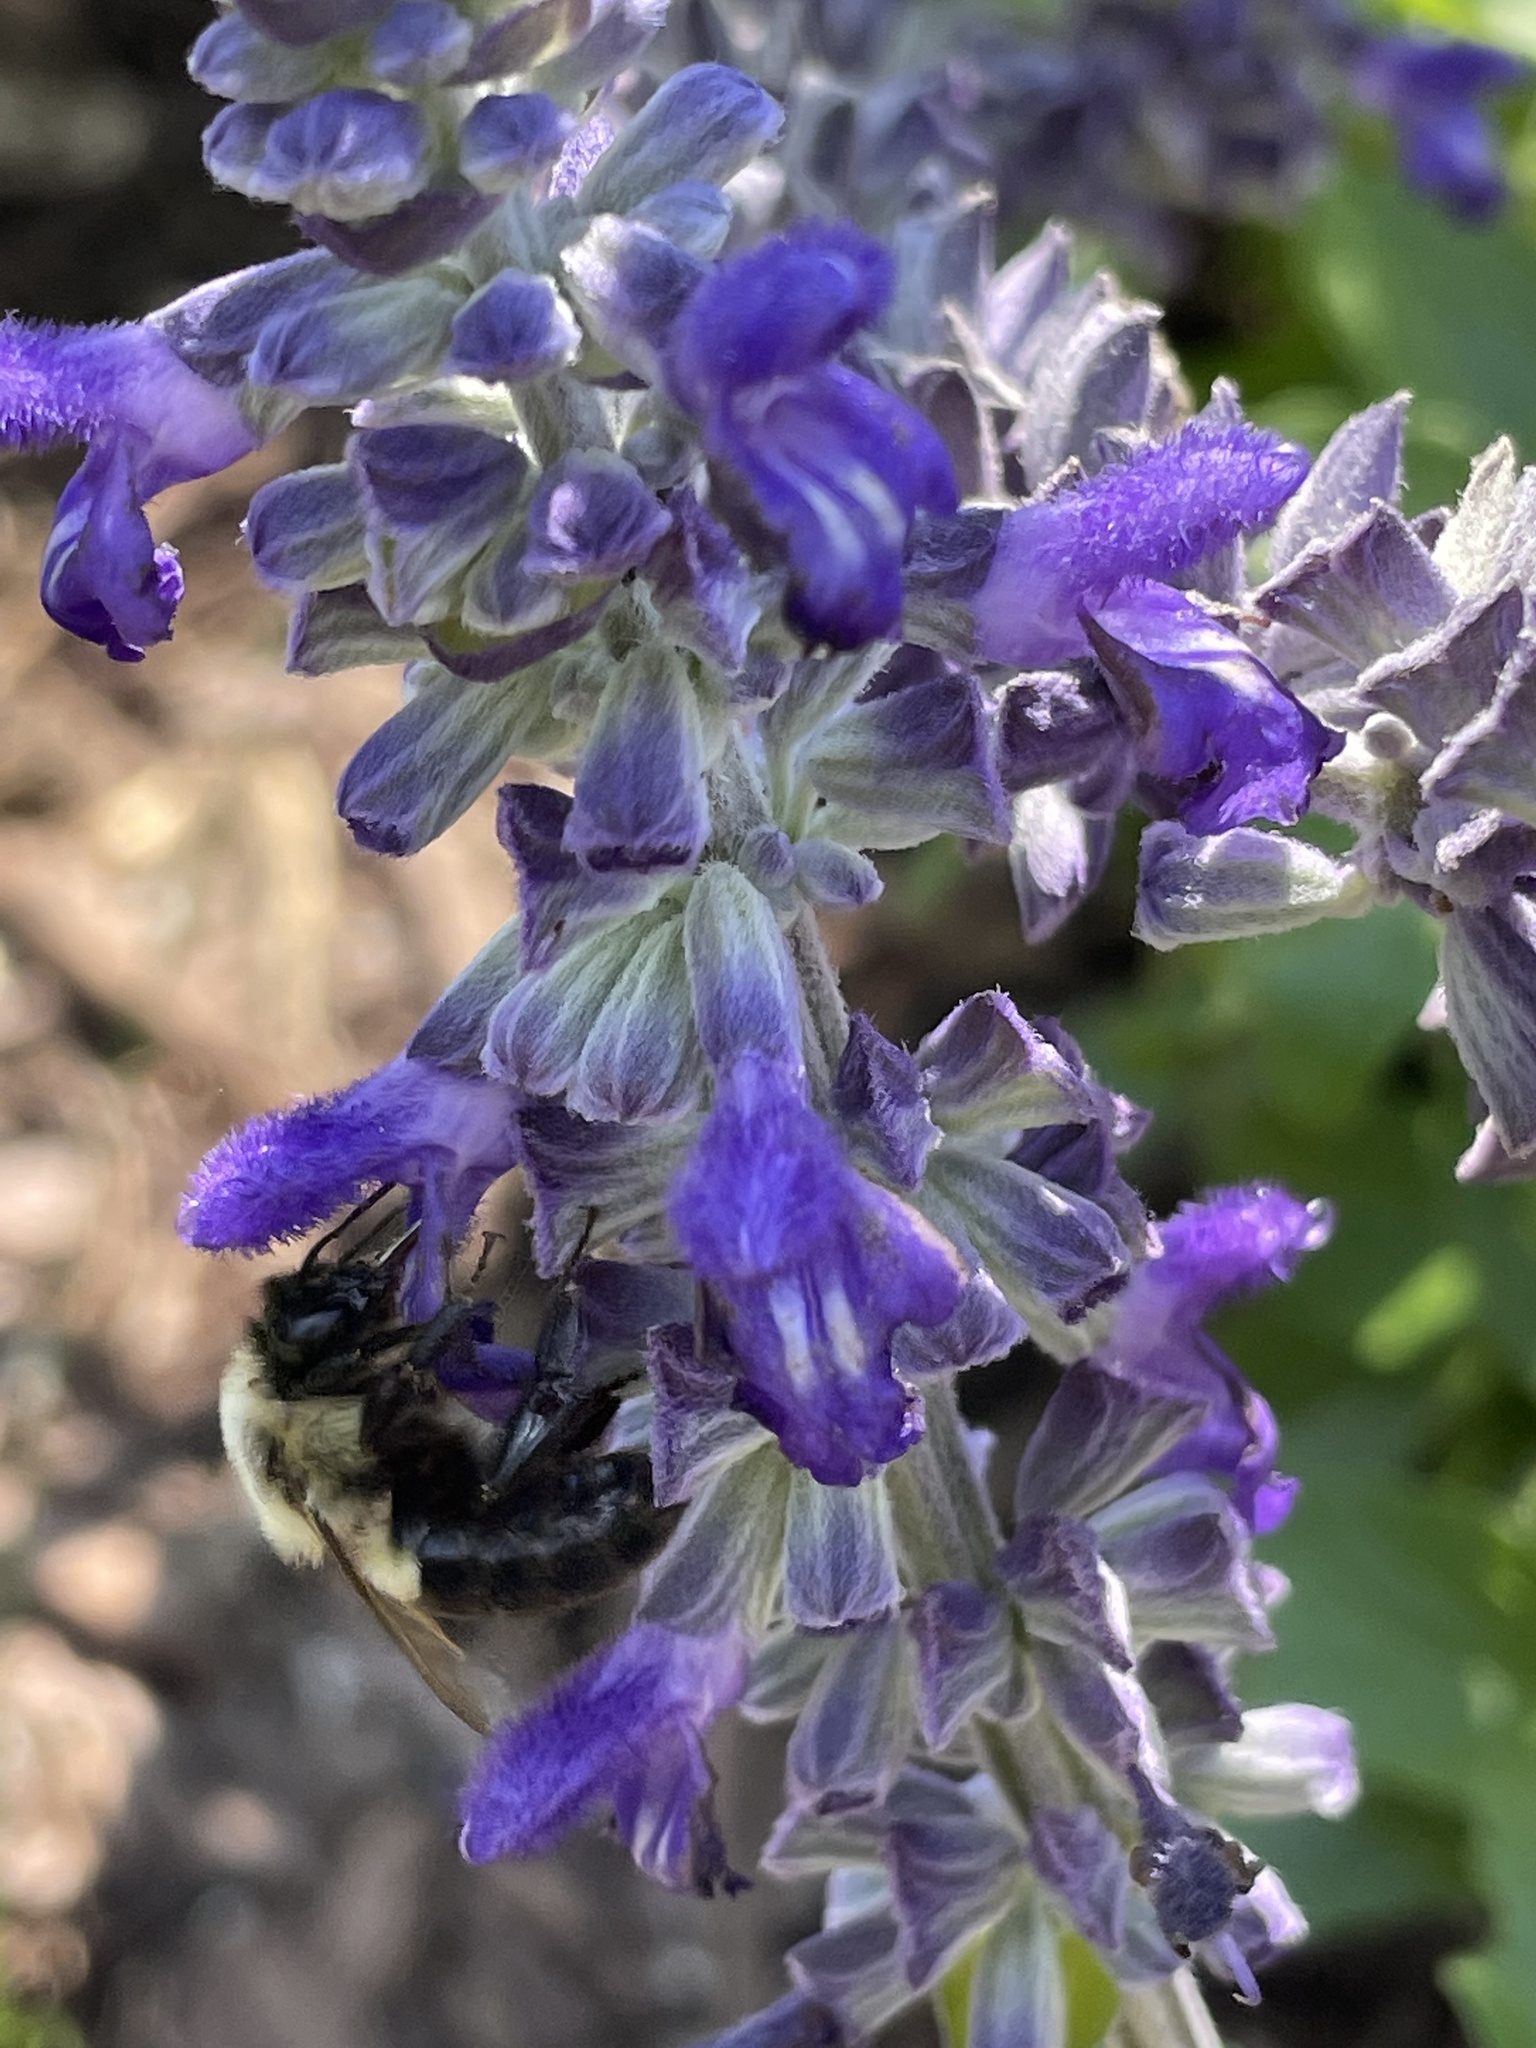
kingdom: Animalia
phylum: Arthropoda
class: Insecta
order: Hymenoptera
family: Apidae
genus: Bombus
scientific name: Bombus impatiens
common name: Common eastern bumble bee
